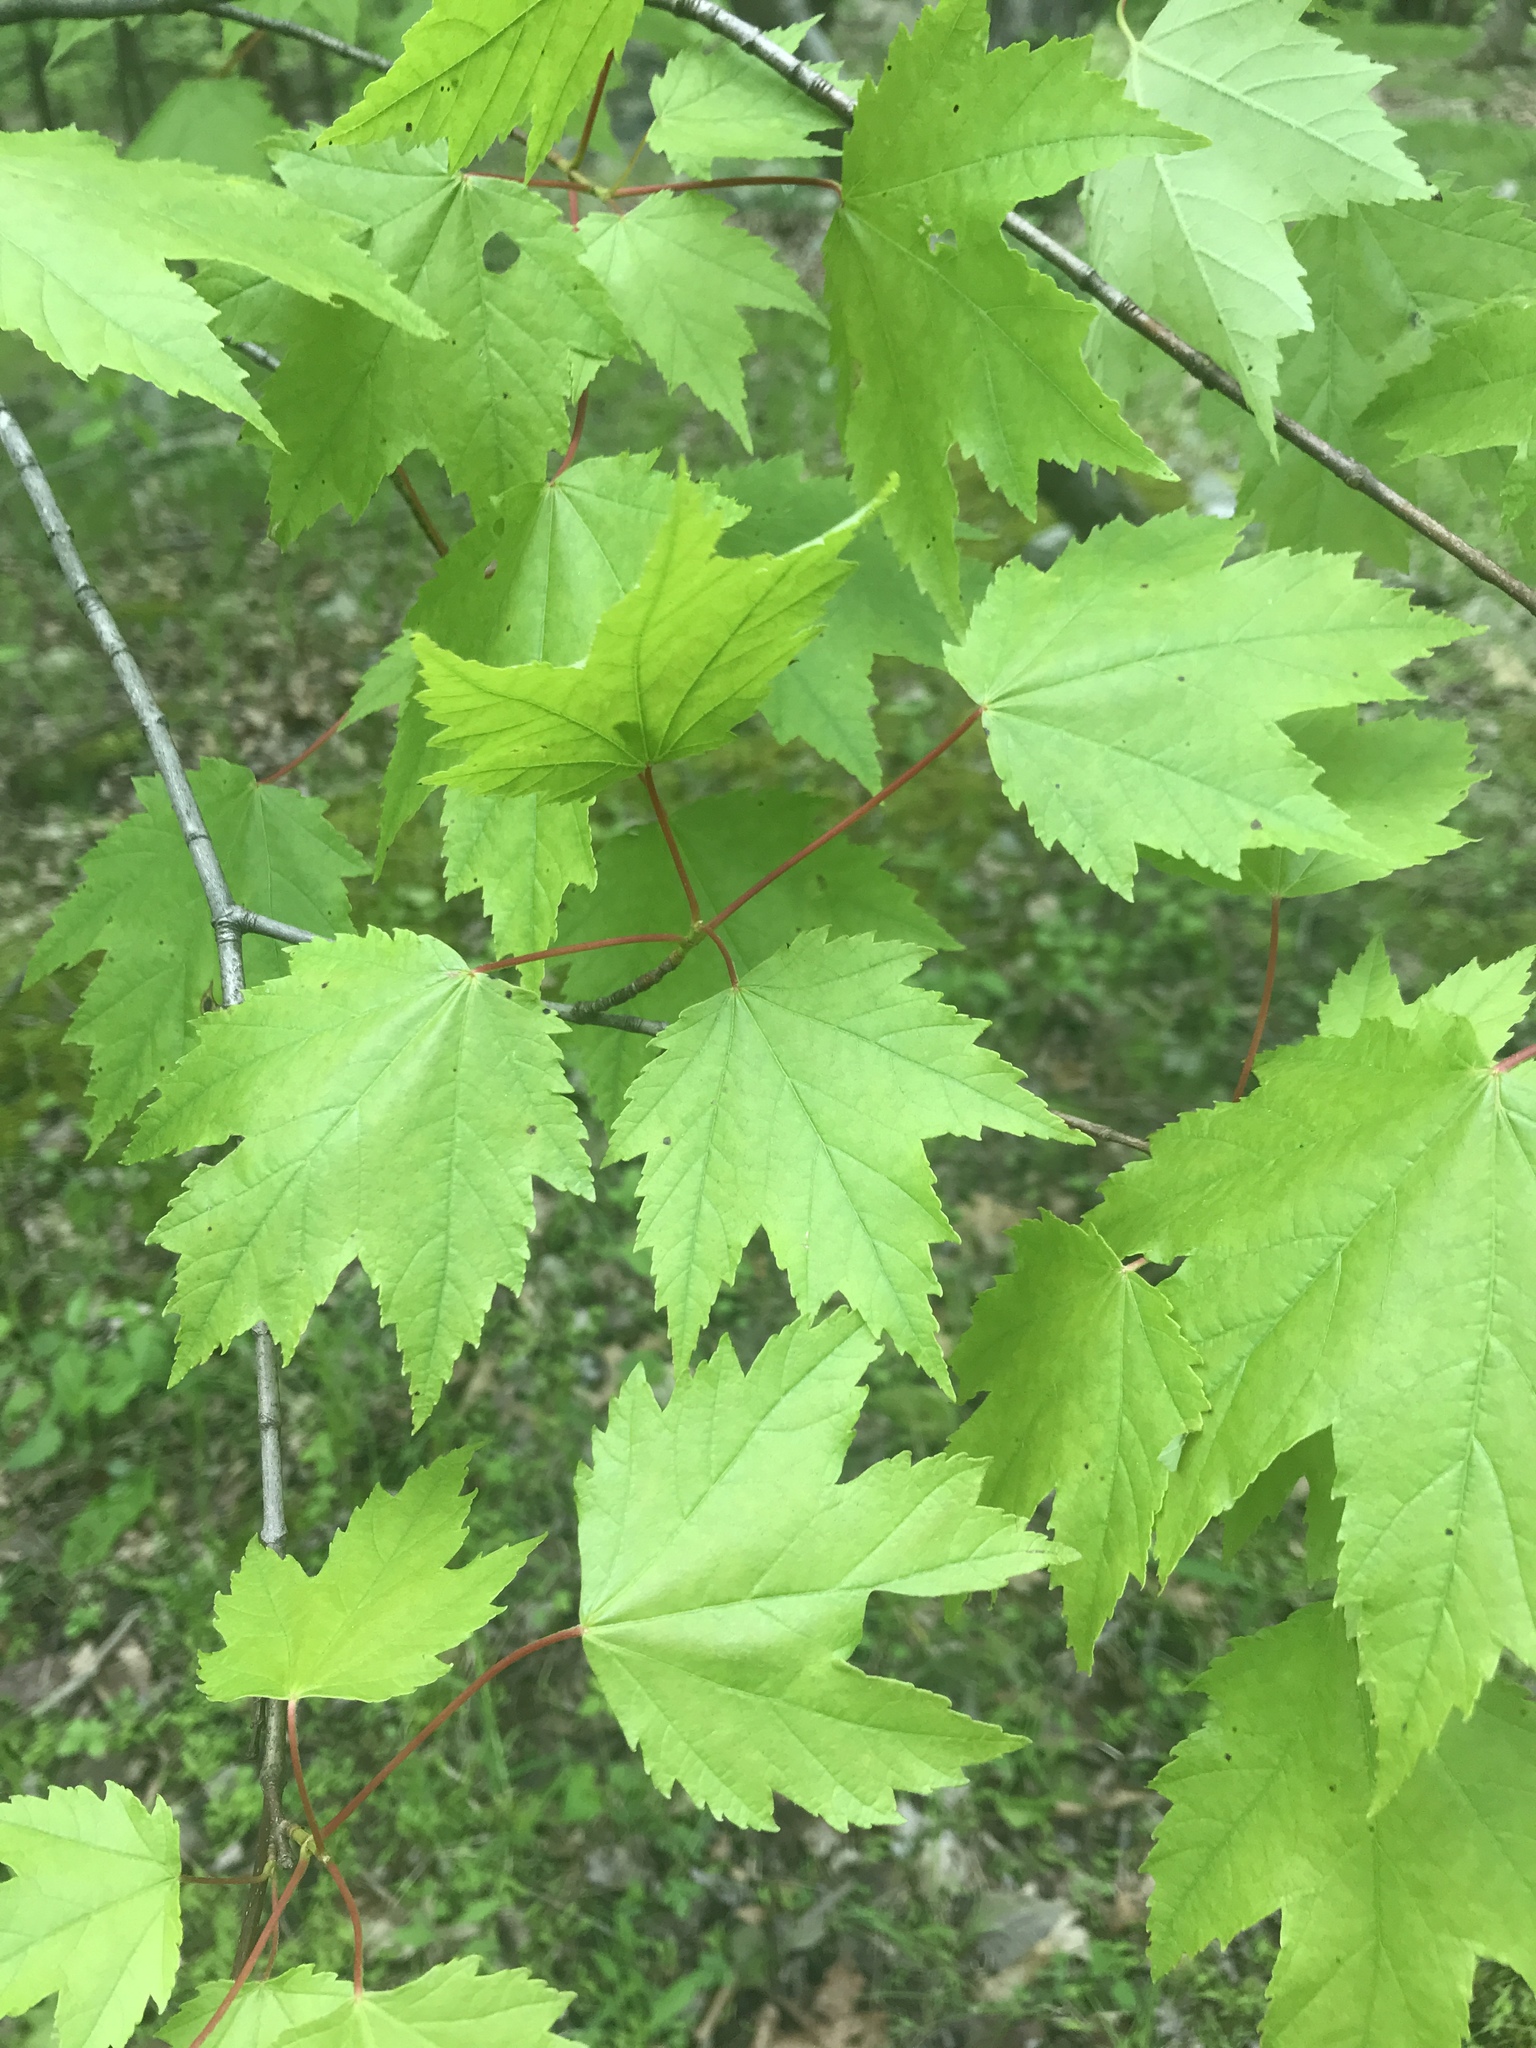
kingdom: Plantae
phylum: Tracheophyta
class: Magnoliopsida
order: Sapindales
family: Sapindaceae
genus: Acer
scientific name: Acer rubrum
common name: Red maple
